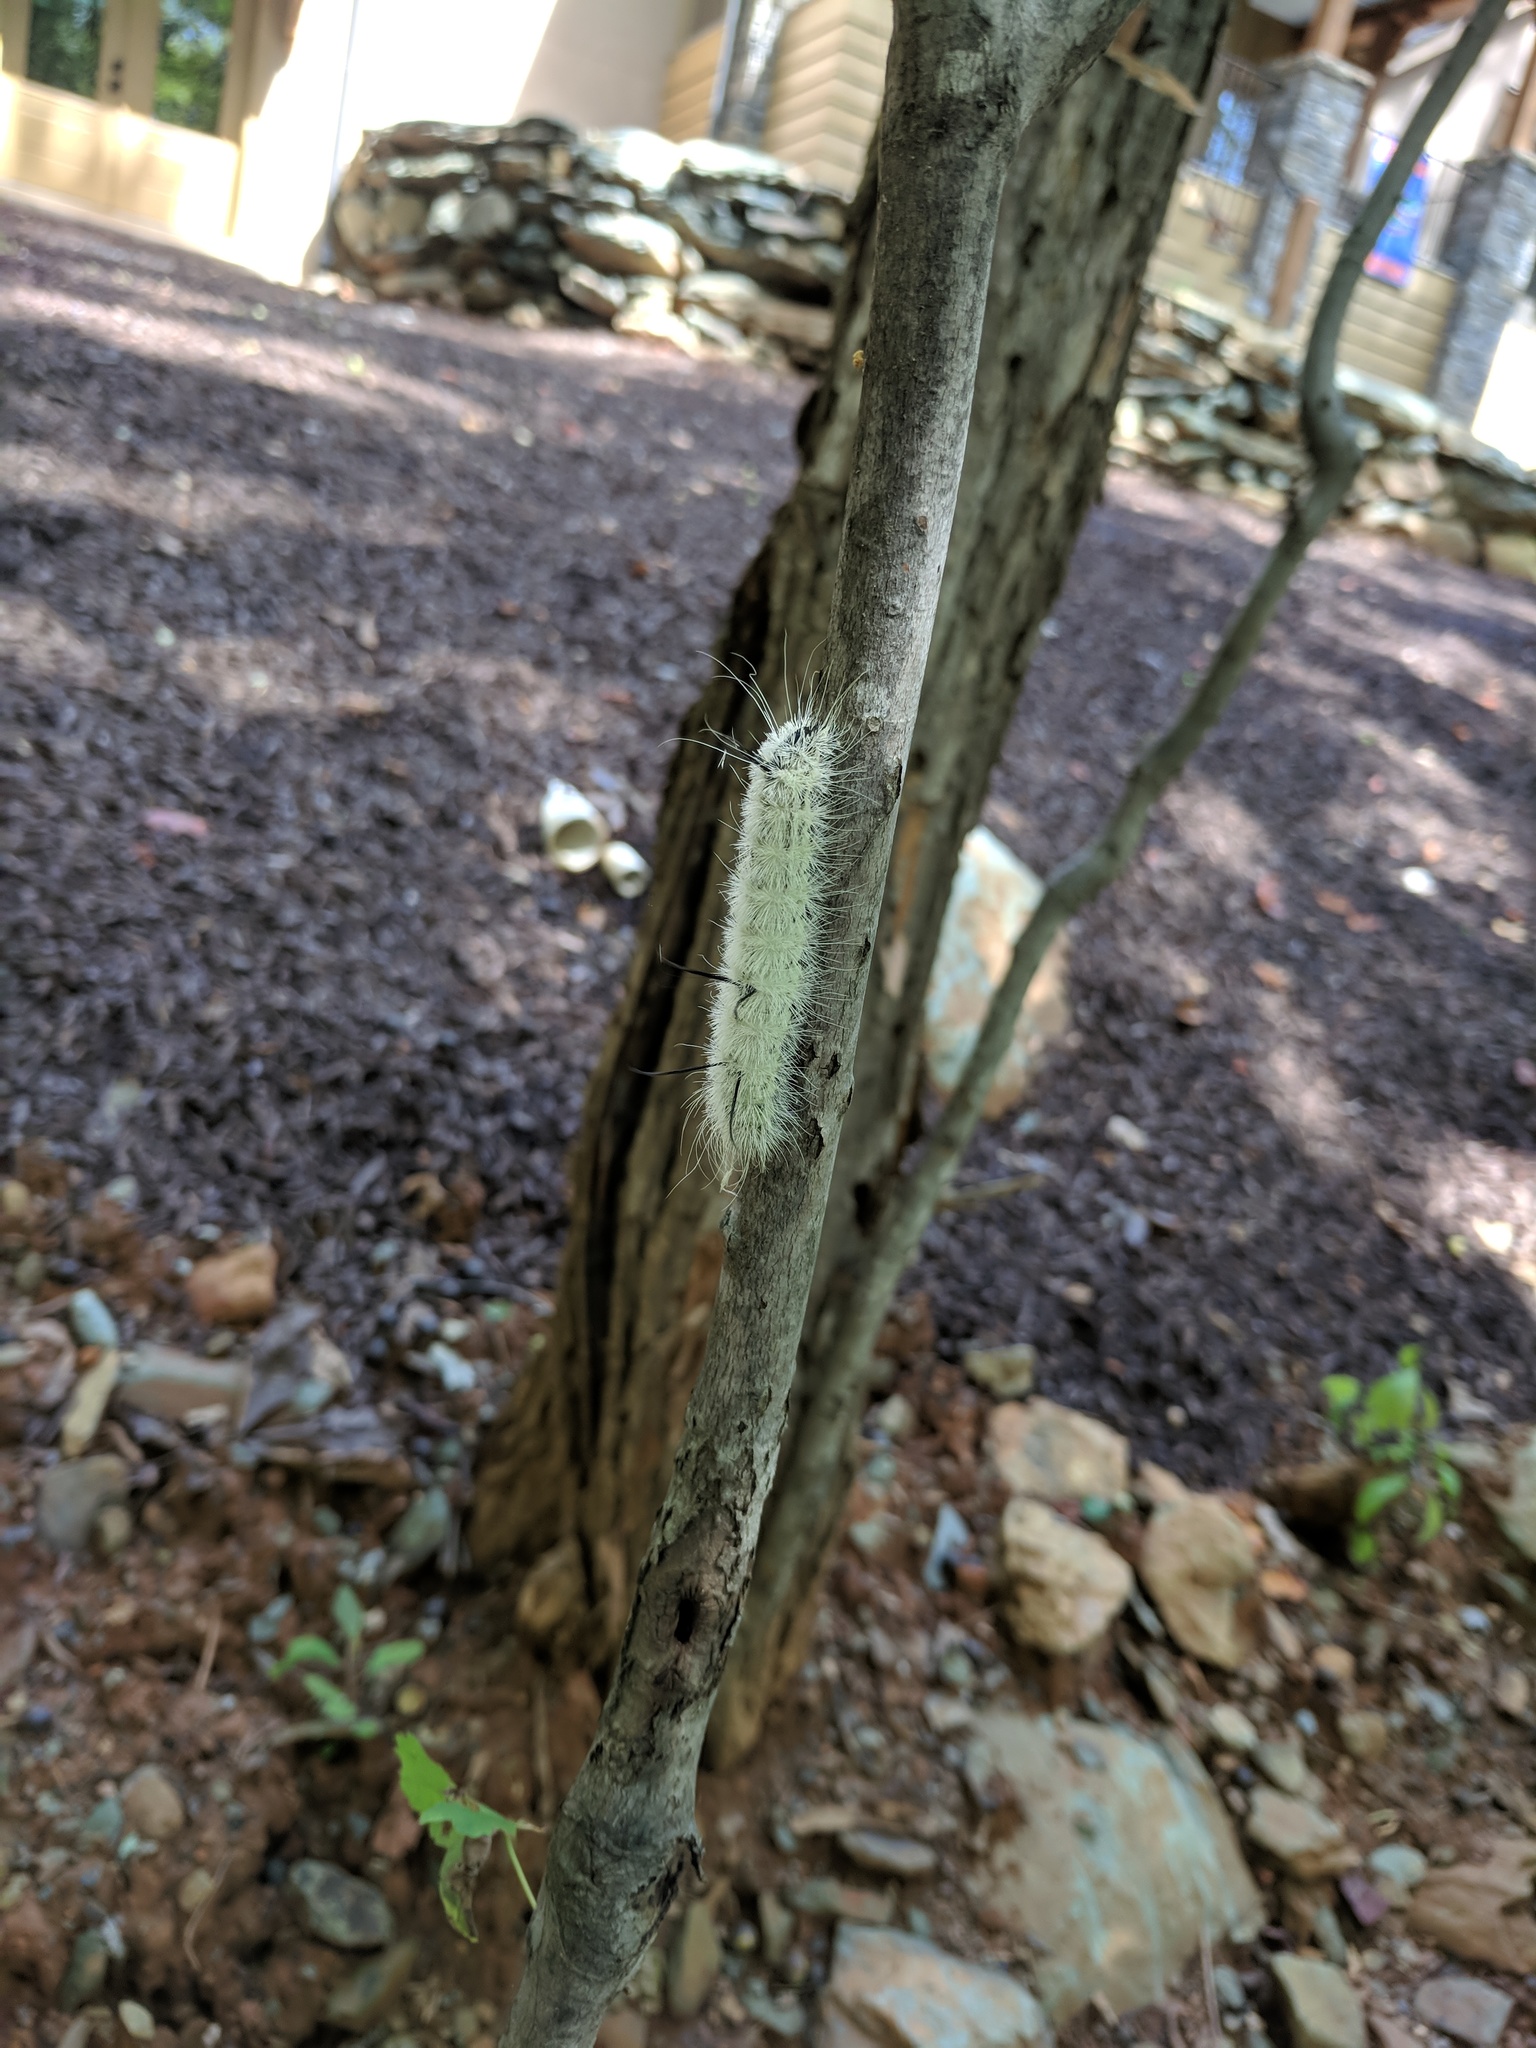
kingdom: Animalia
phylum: Arthropoda
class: Insecta
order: Lepidoptera
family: Noctuidae
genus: Acronicta
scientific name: Acronicta americana
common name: American dagger
